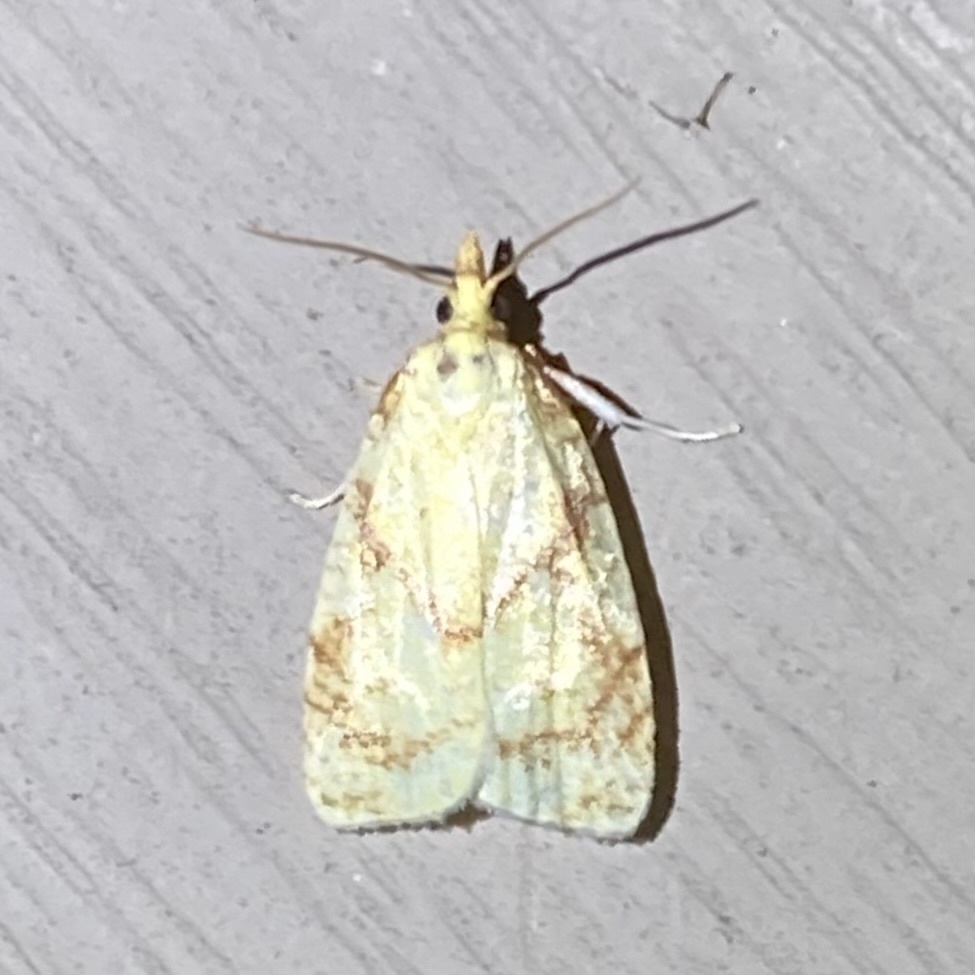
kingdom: Animalia
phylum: Arthropoda
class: Insecta
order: Lepidoptera
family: Tortricidae
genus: Cenopis
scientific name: Cenopis pettitana
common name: Maple-basswood leafroller moth
